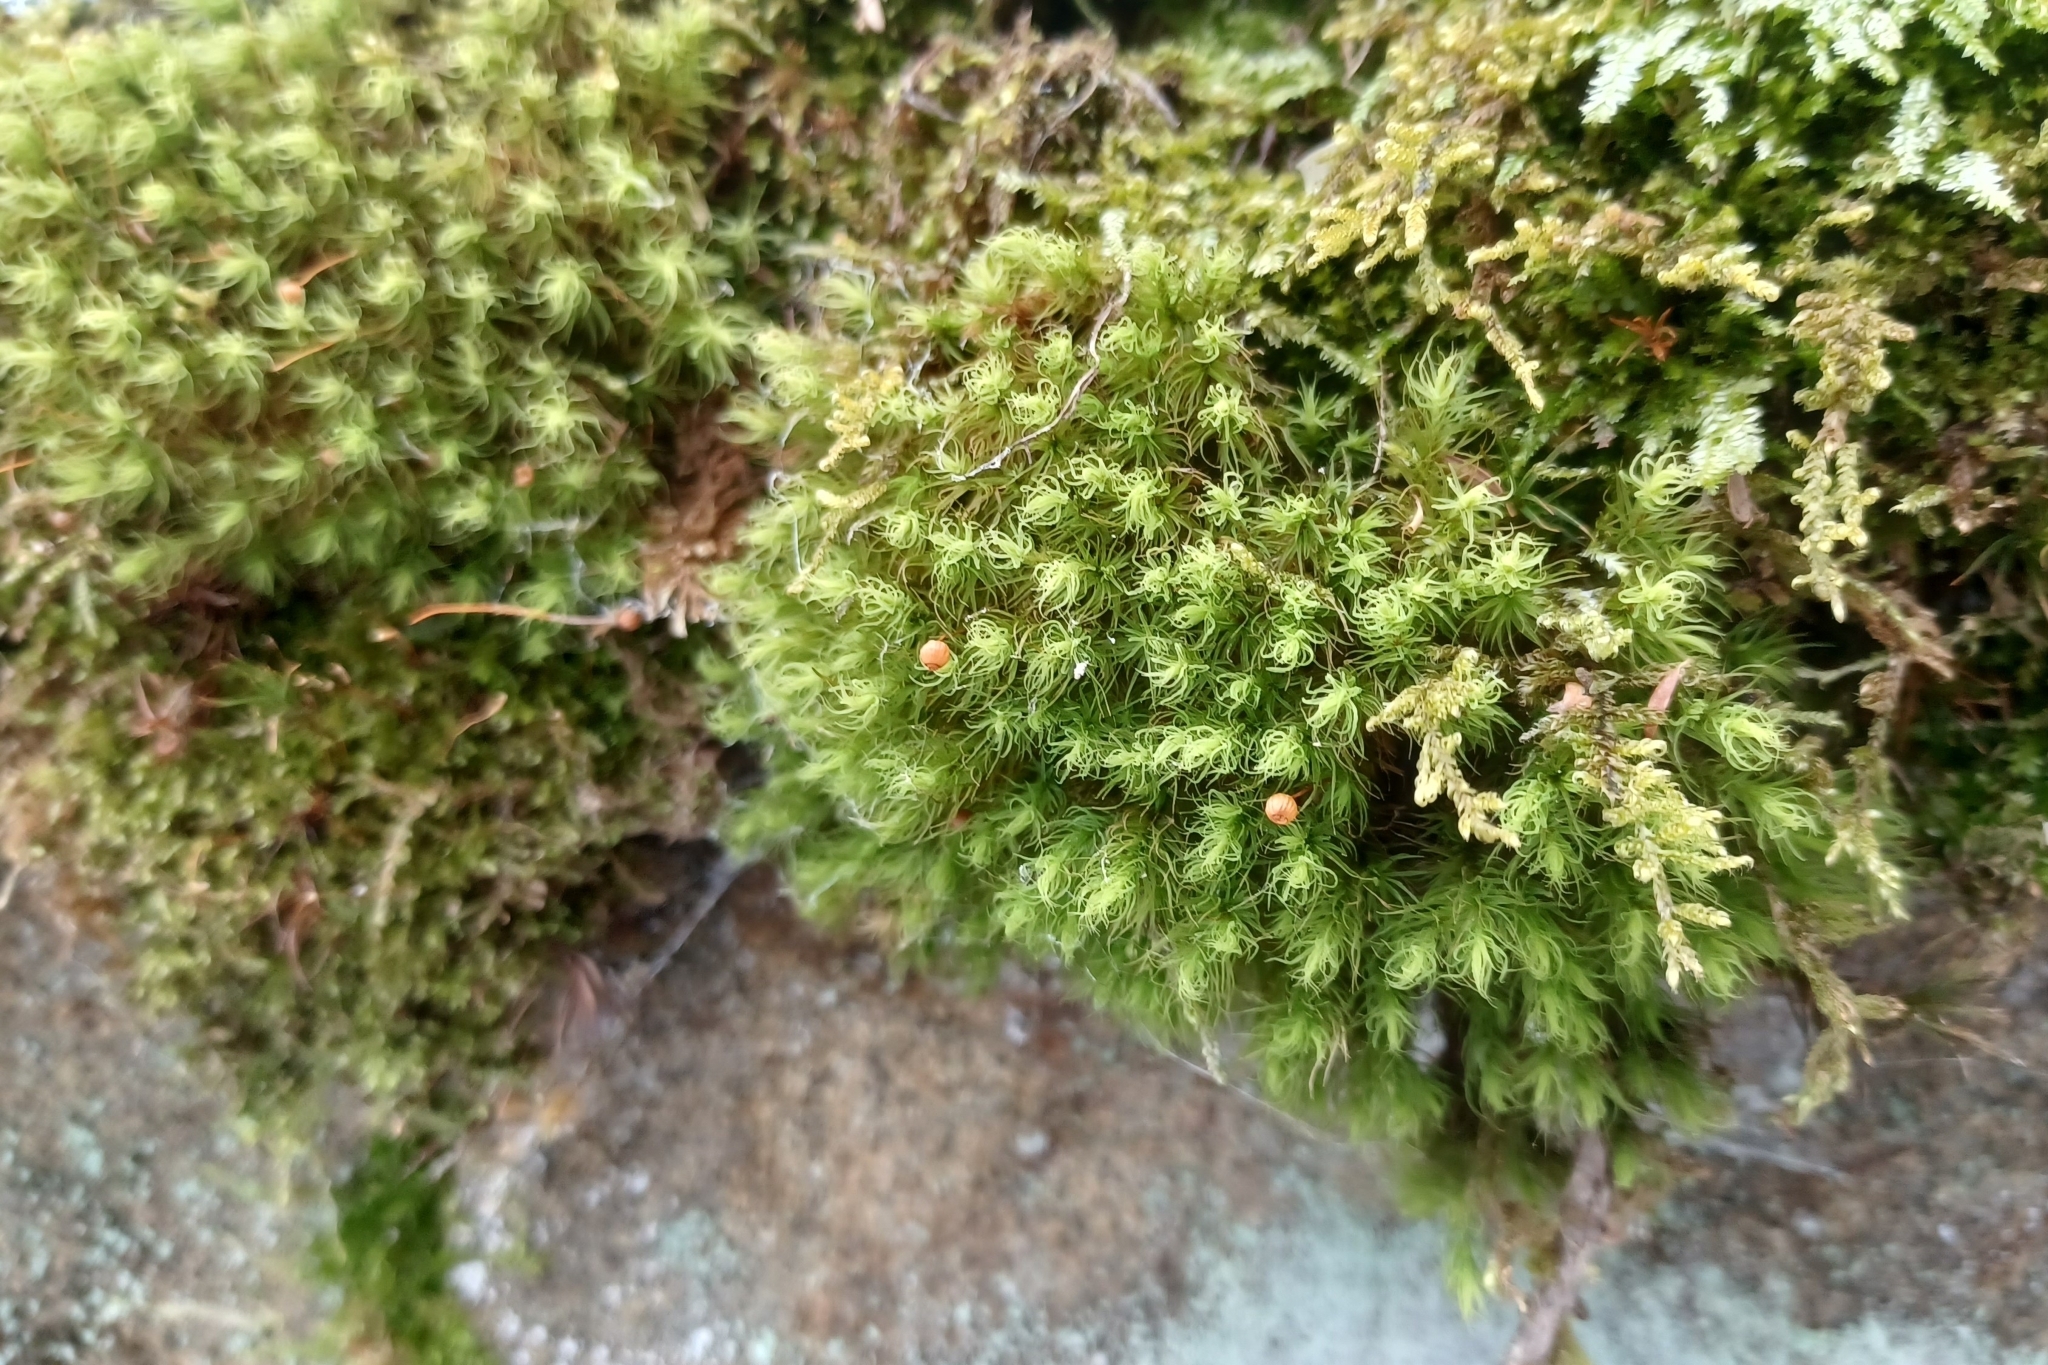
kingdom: Plantae
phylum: Bryophyta
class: Bryopsida
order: Bartramiales
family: Bartramiaceae
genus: Bartramia
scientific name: Bartramia ithyphylla
